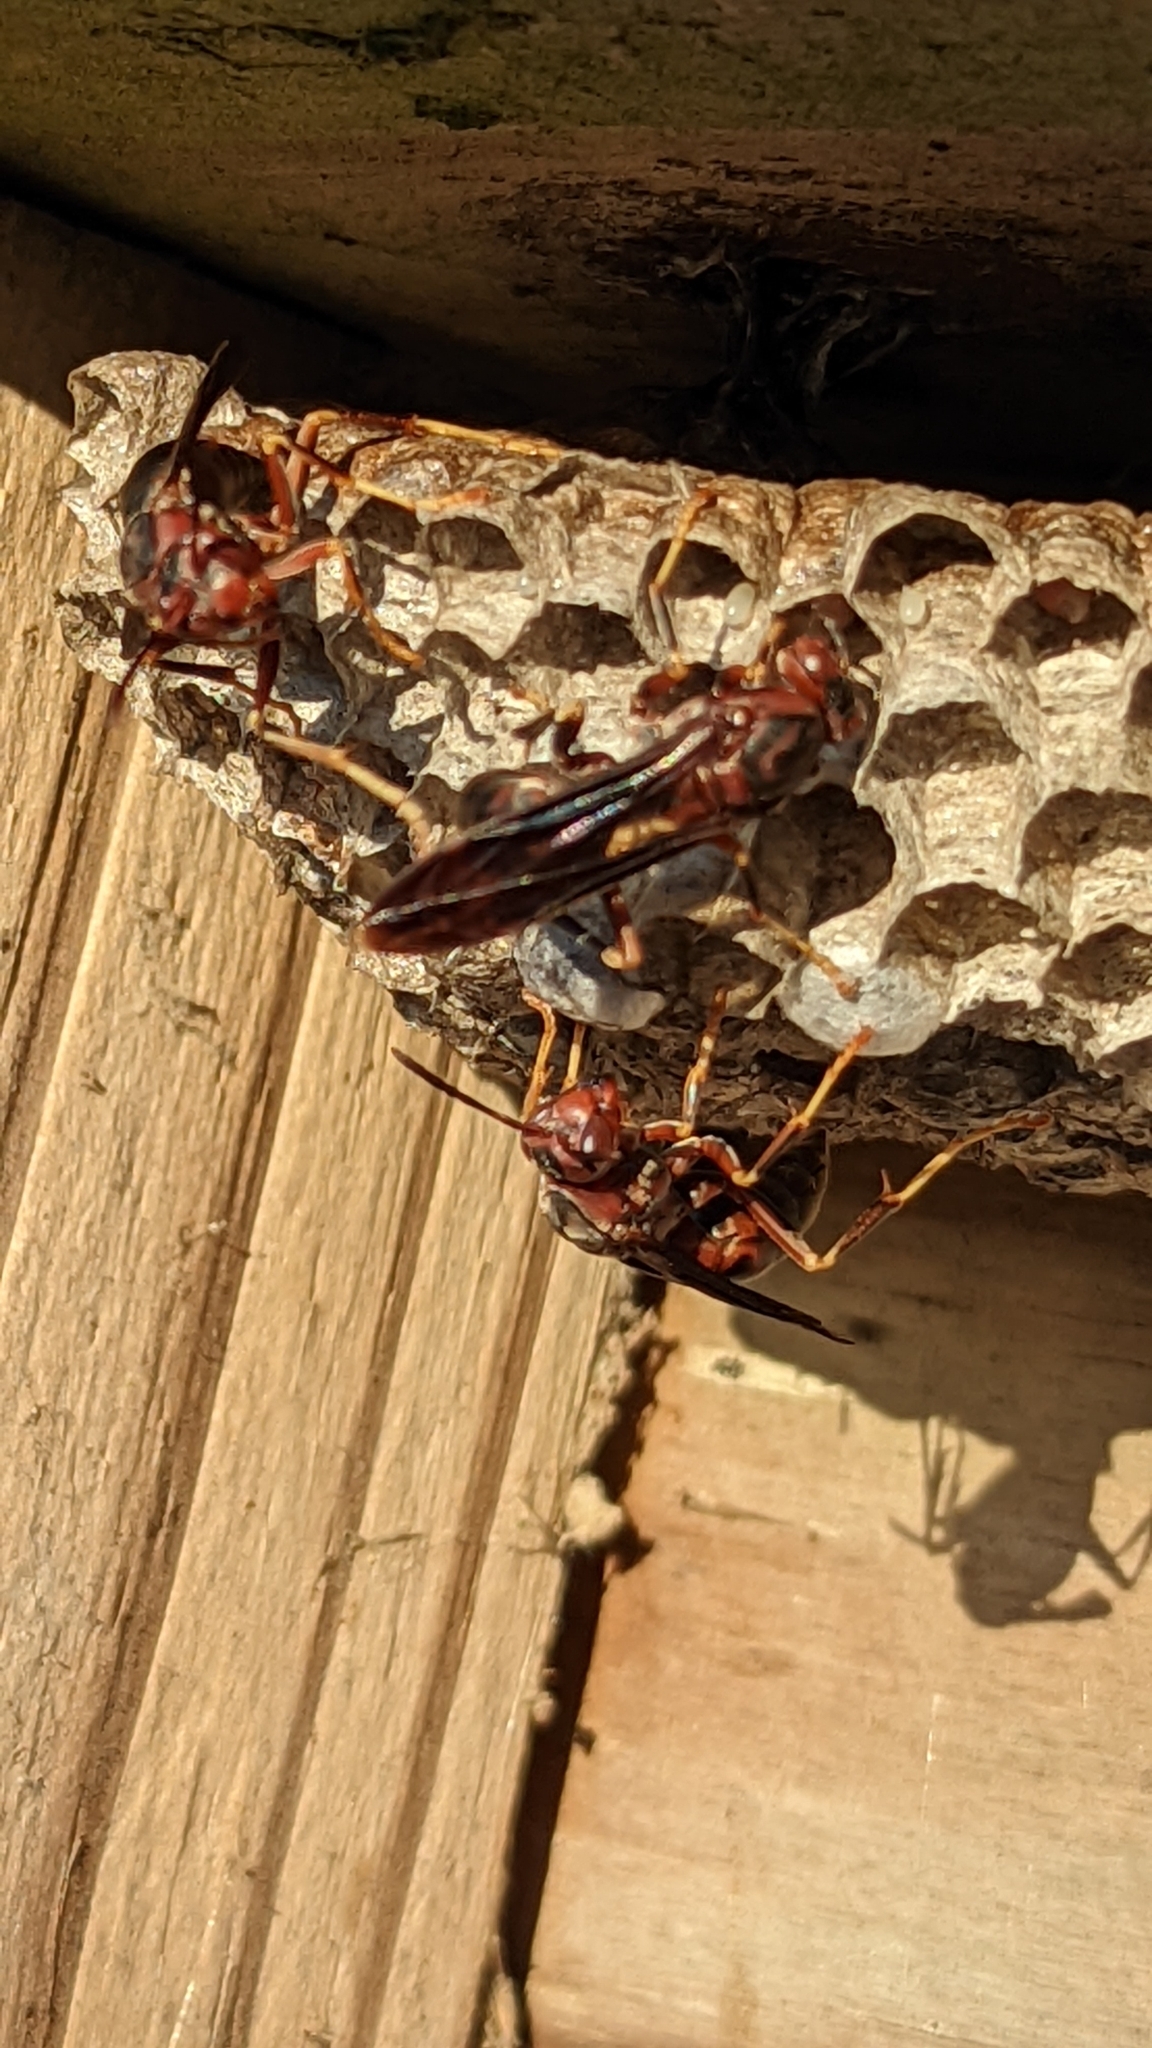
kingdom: Animalia
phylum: Arthropoda
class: Insecta
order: Hymenoptera
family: Eumenidae
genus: Polistes
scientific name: Polistes metricus
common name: Metric paper wasp
